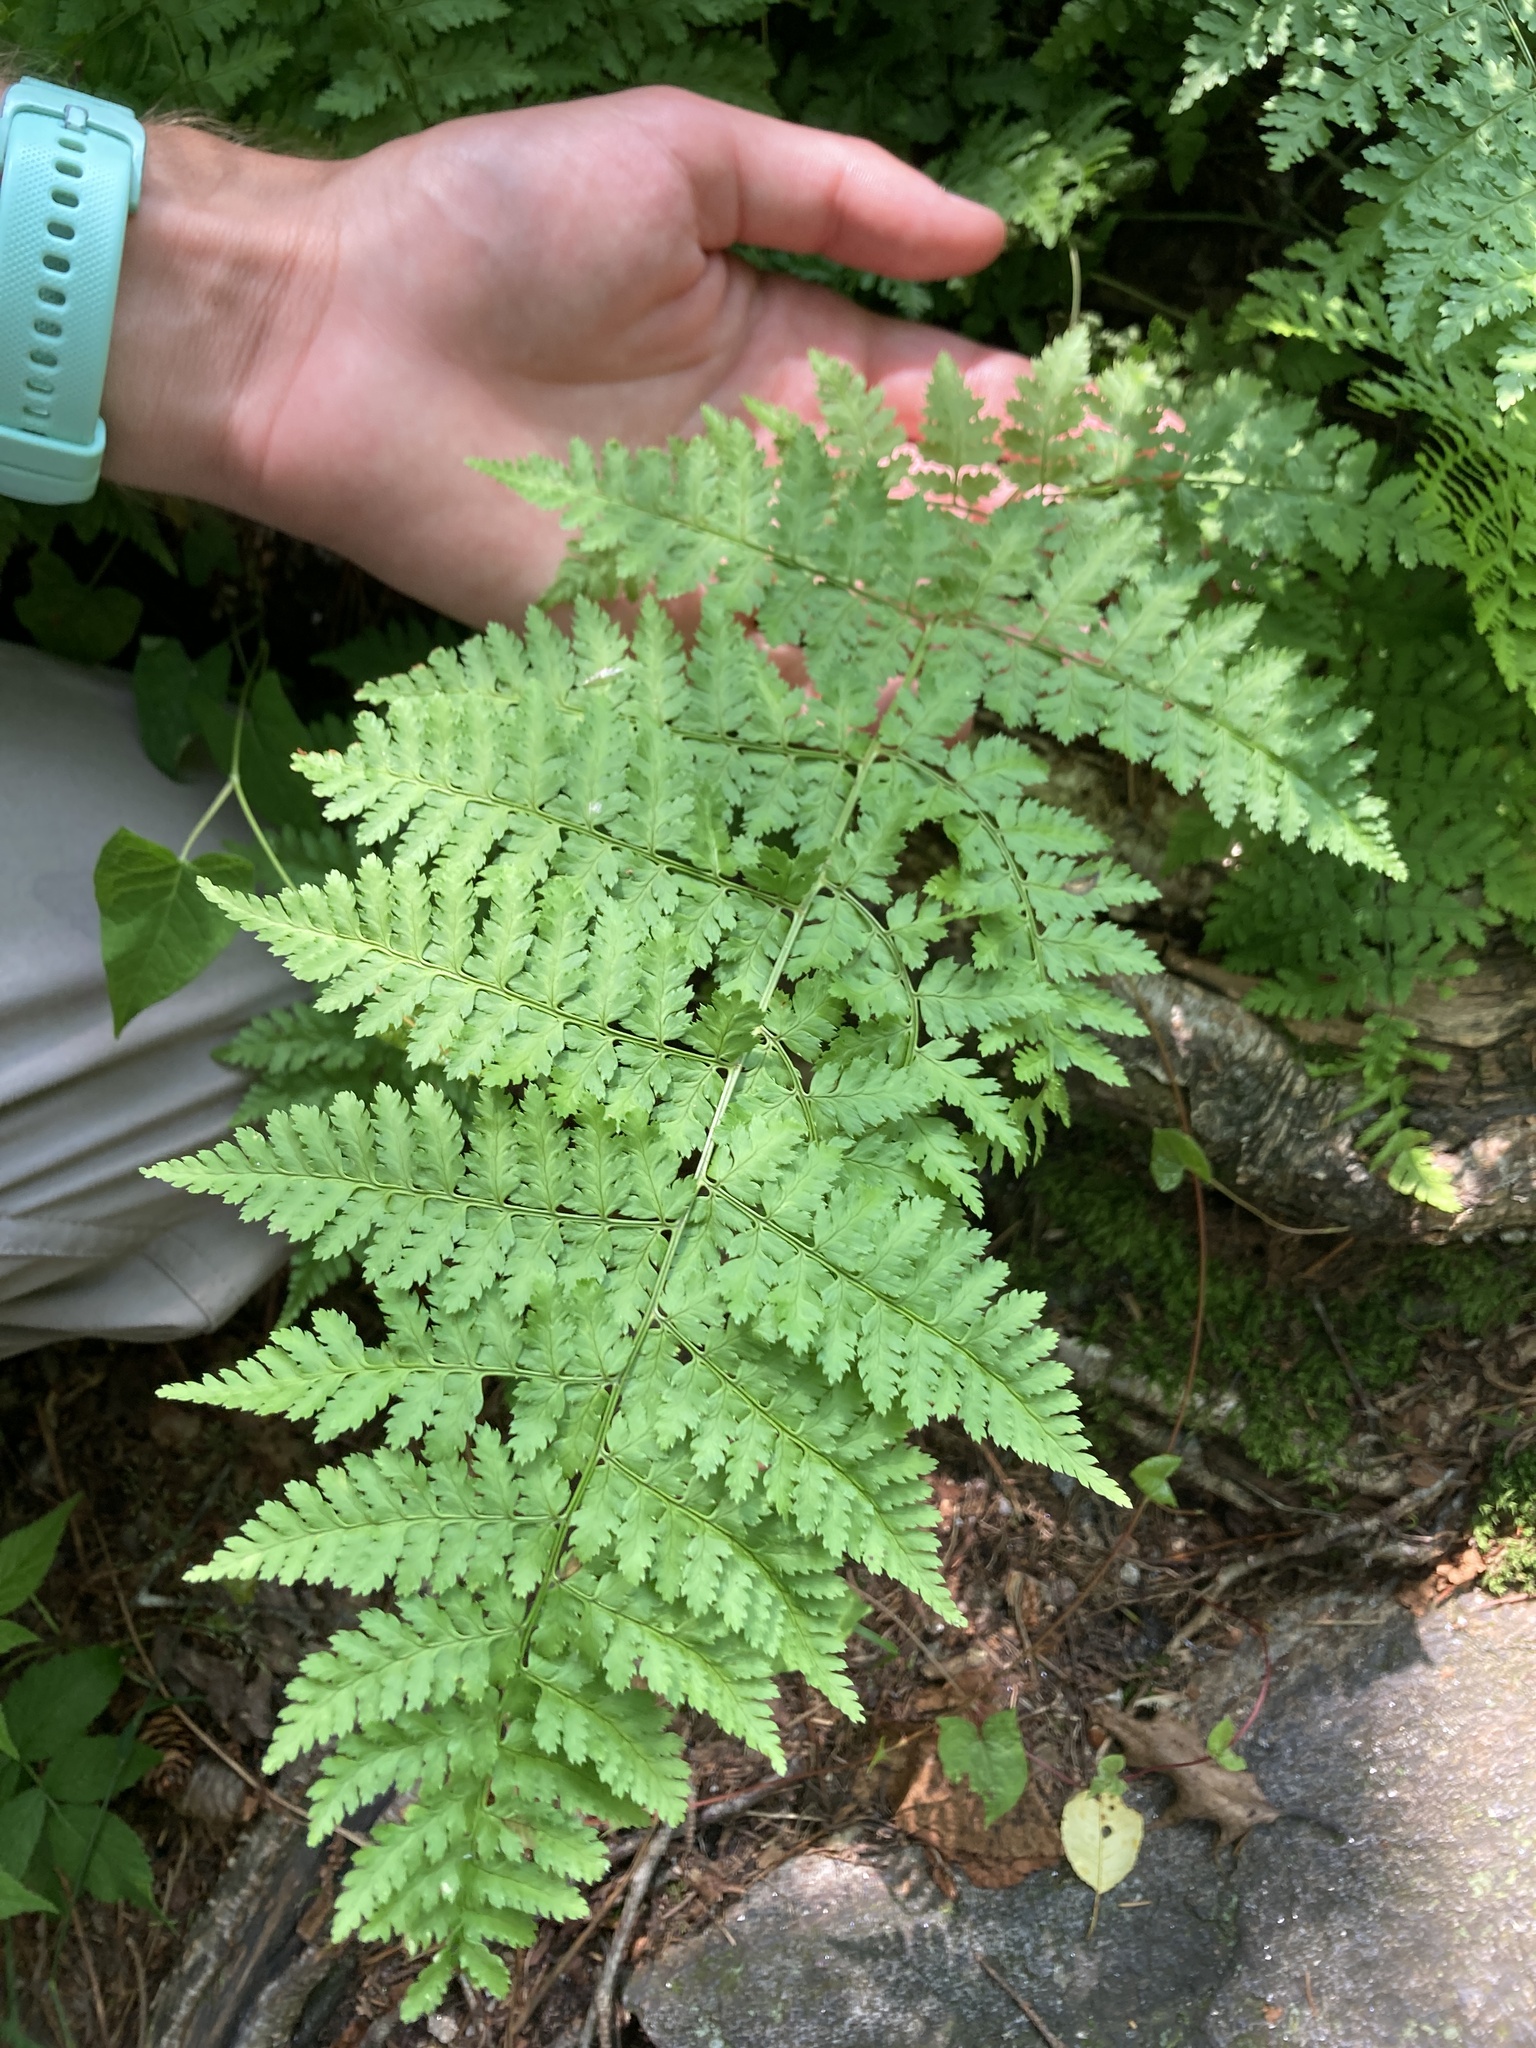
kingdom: Plantae
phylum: Tracheophyta
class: Polypodiopsida
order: Polypodiales
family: Dryopteridaceae
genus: Dryopteris
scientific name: Dryopteris intermedia
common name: Evergreen wood fern
